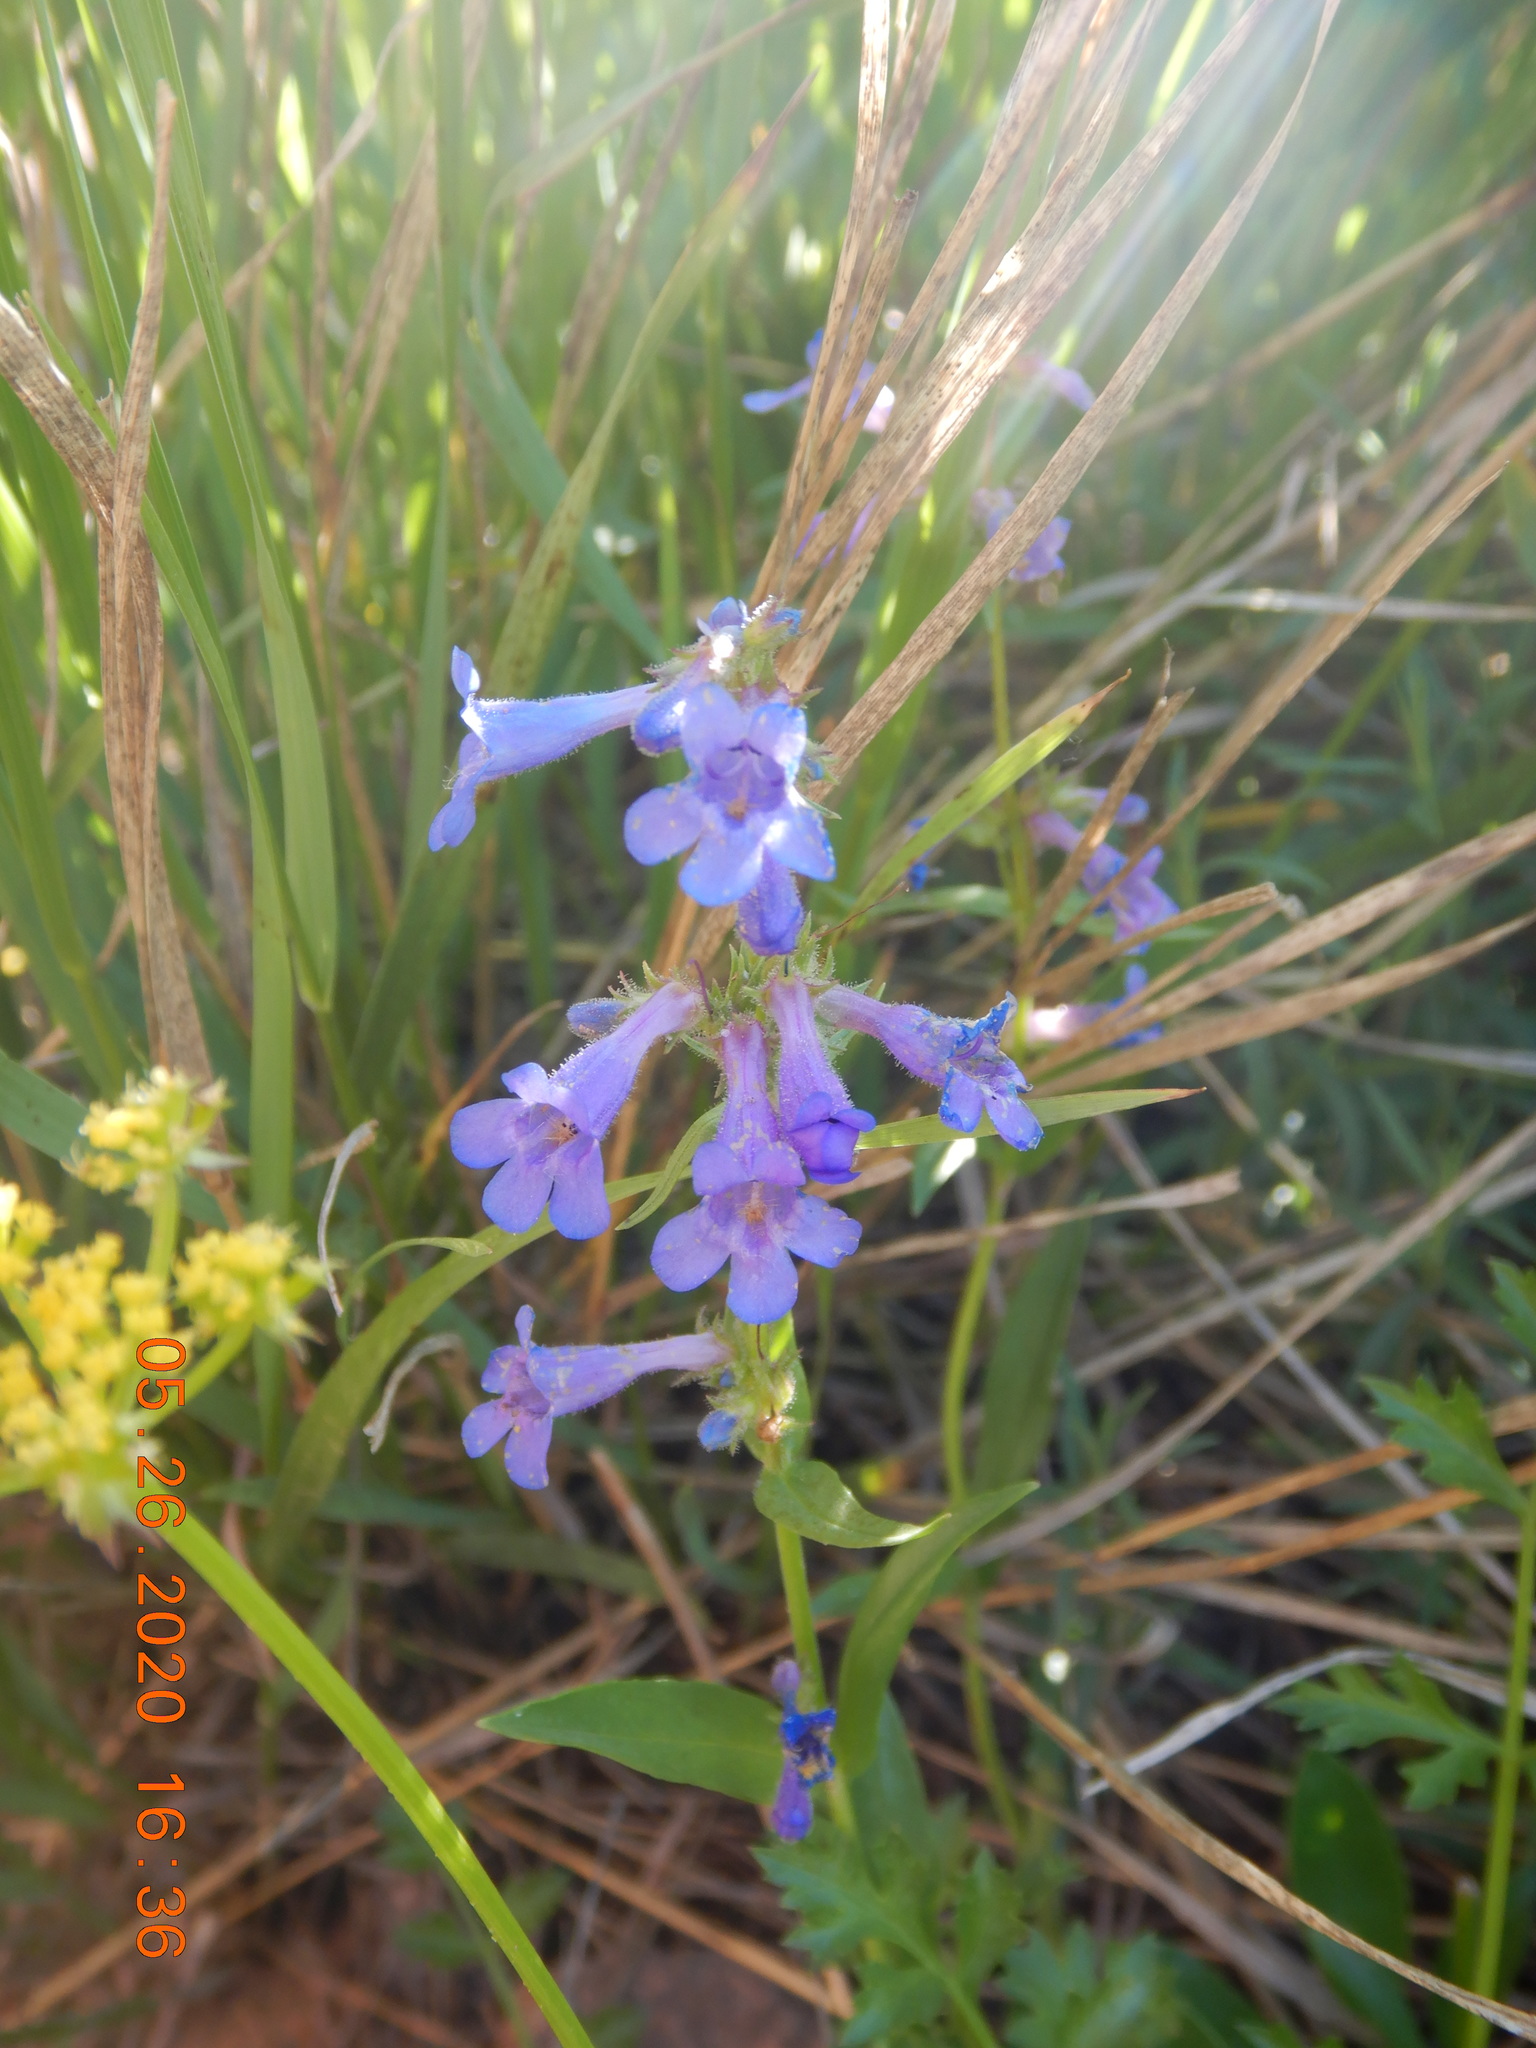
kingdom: Plantae
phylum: Tracheophyta
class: Magnoliopsida
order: Lamiales
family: Plantaginaceae
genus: Penstemon
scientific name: Penstemon virens
